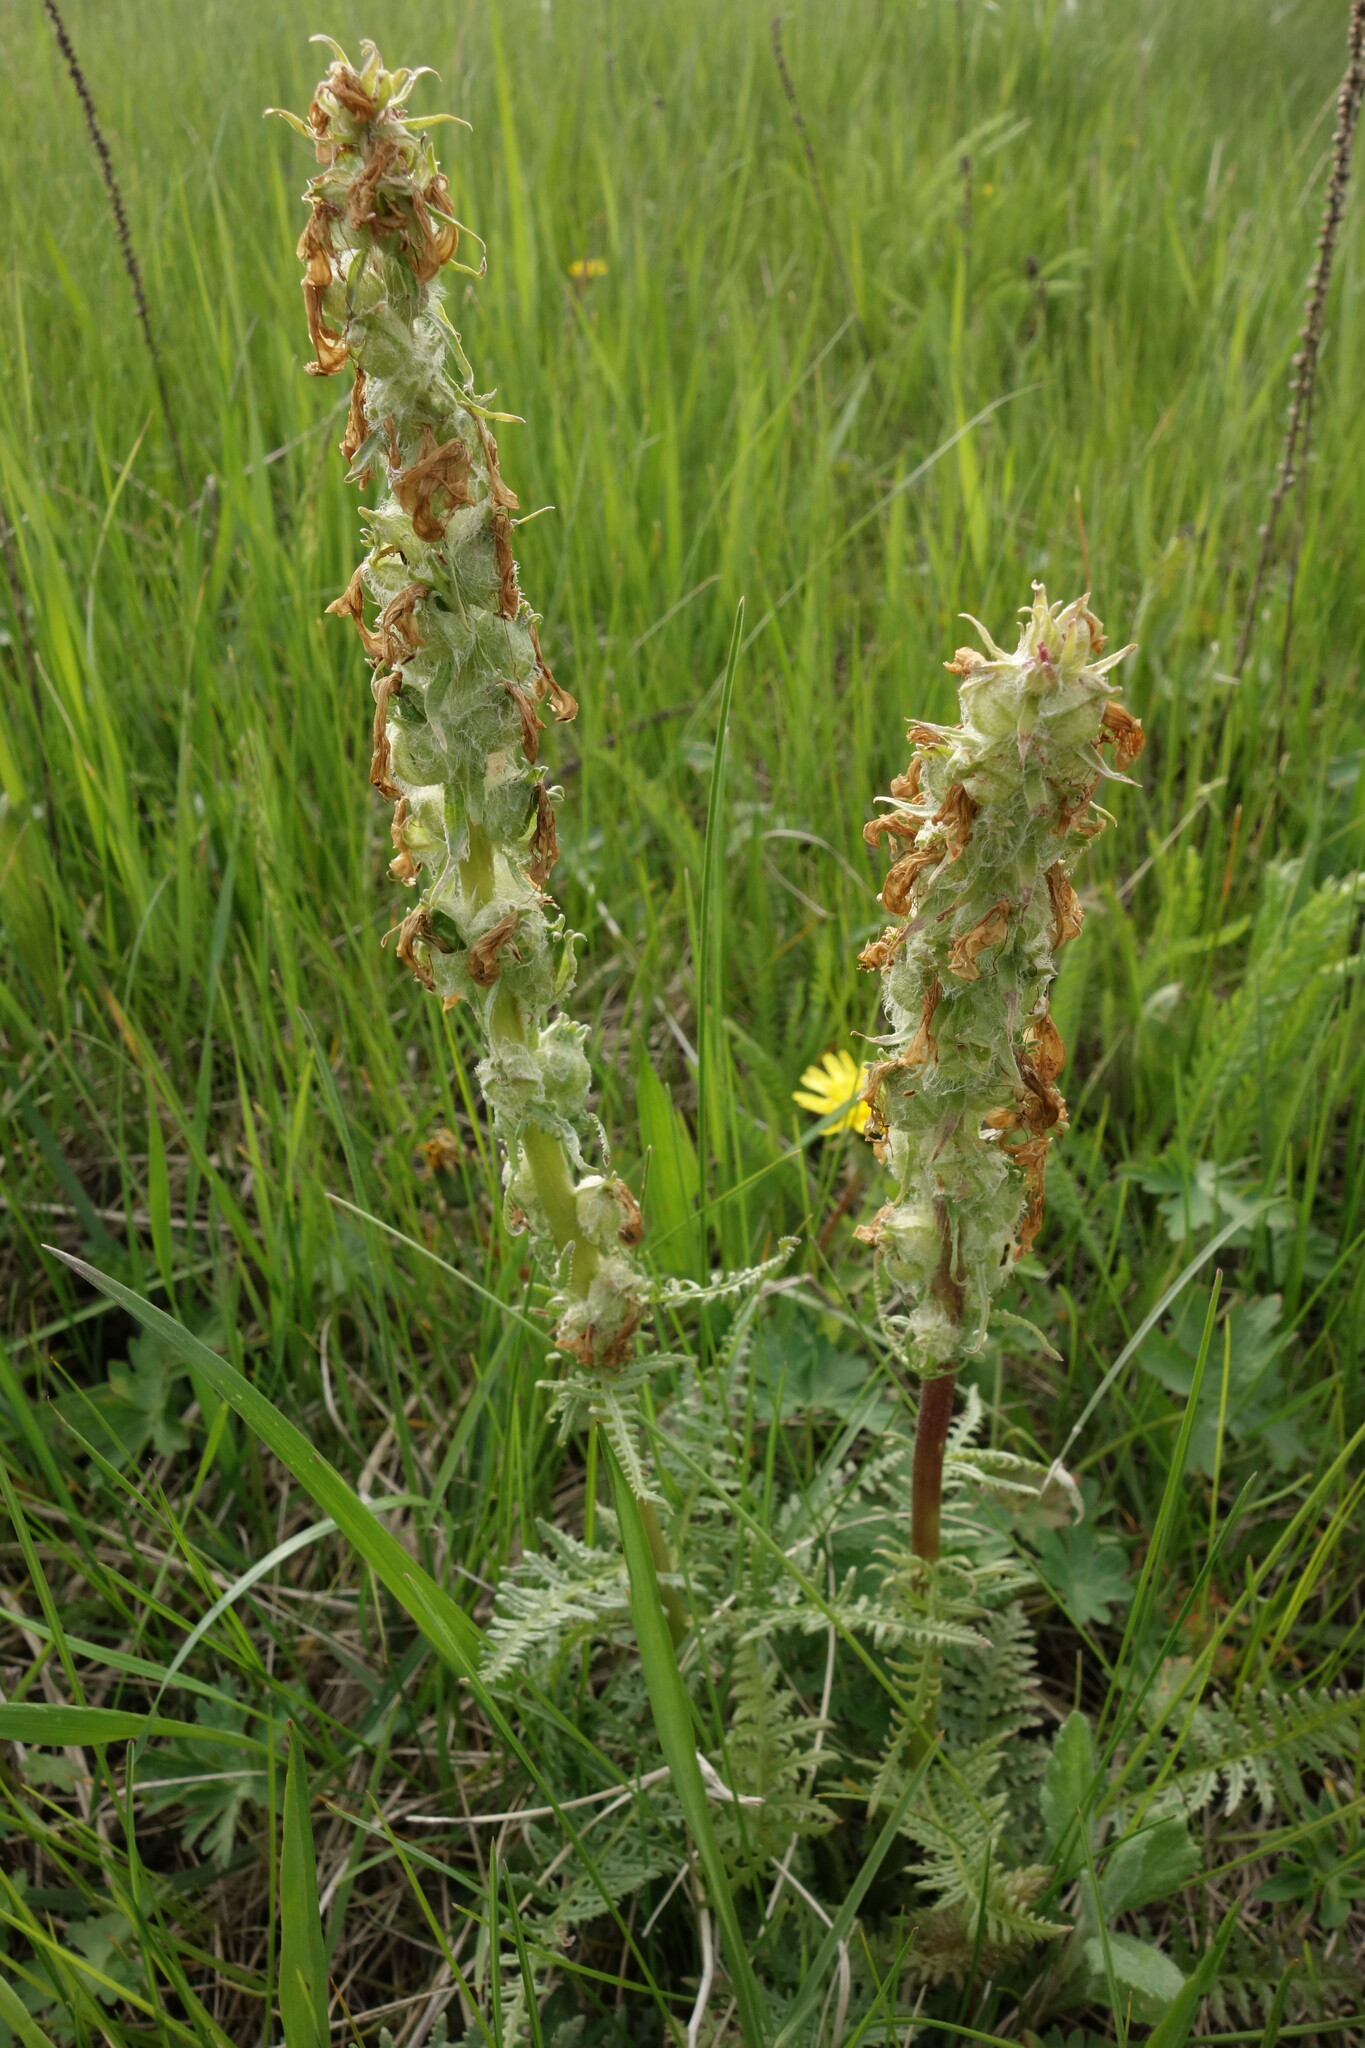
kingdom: Plantae
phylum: Tracheophyta
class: Magnoliopsida
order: Lamiales
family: Orobanchaceae
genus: Pedicularis
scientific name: Pedicularis dasystachys
